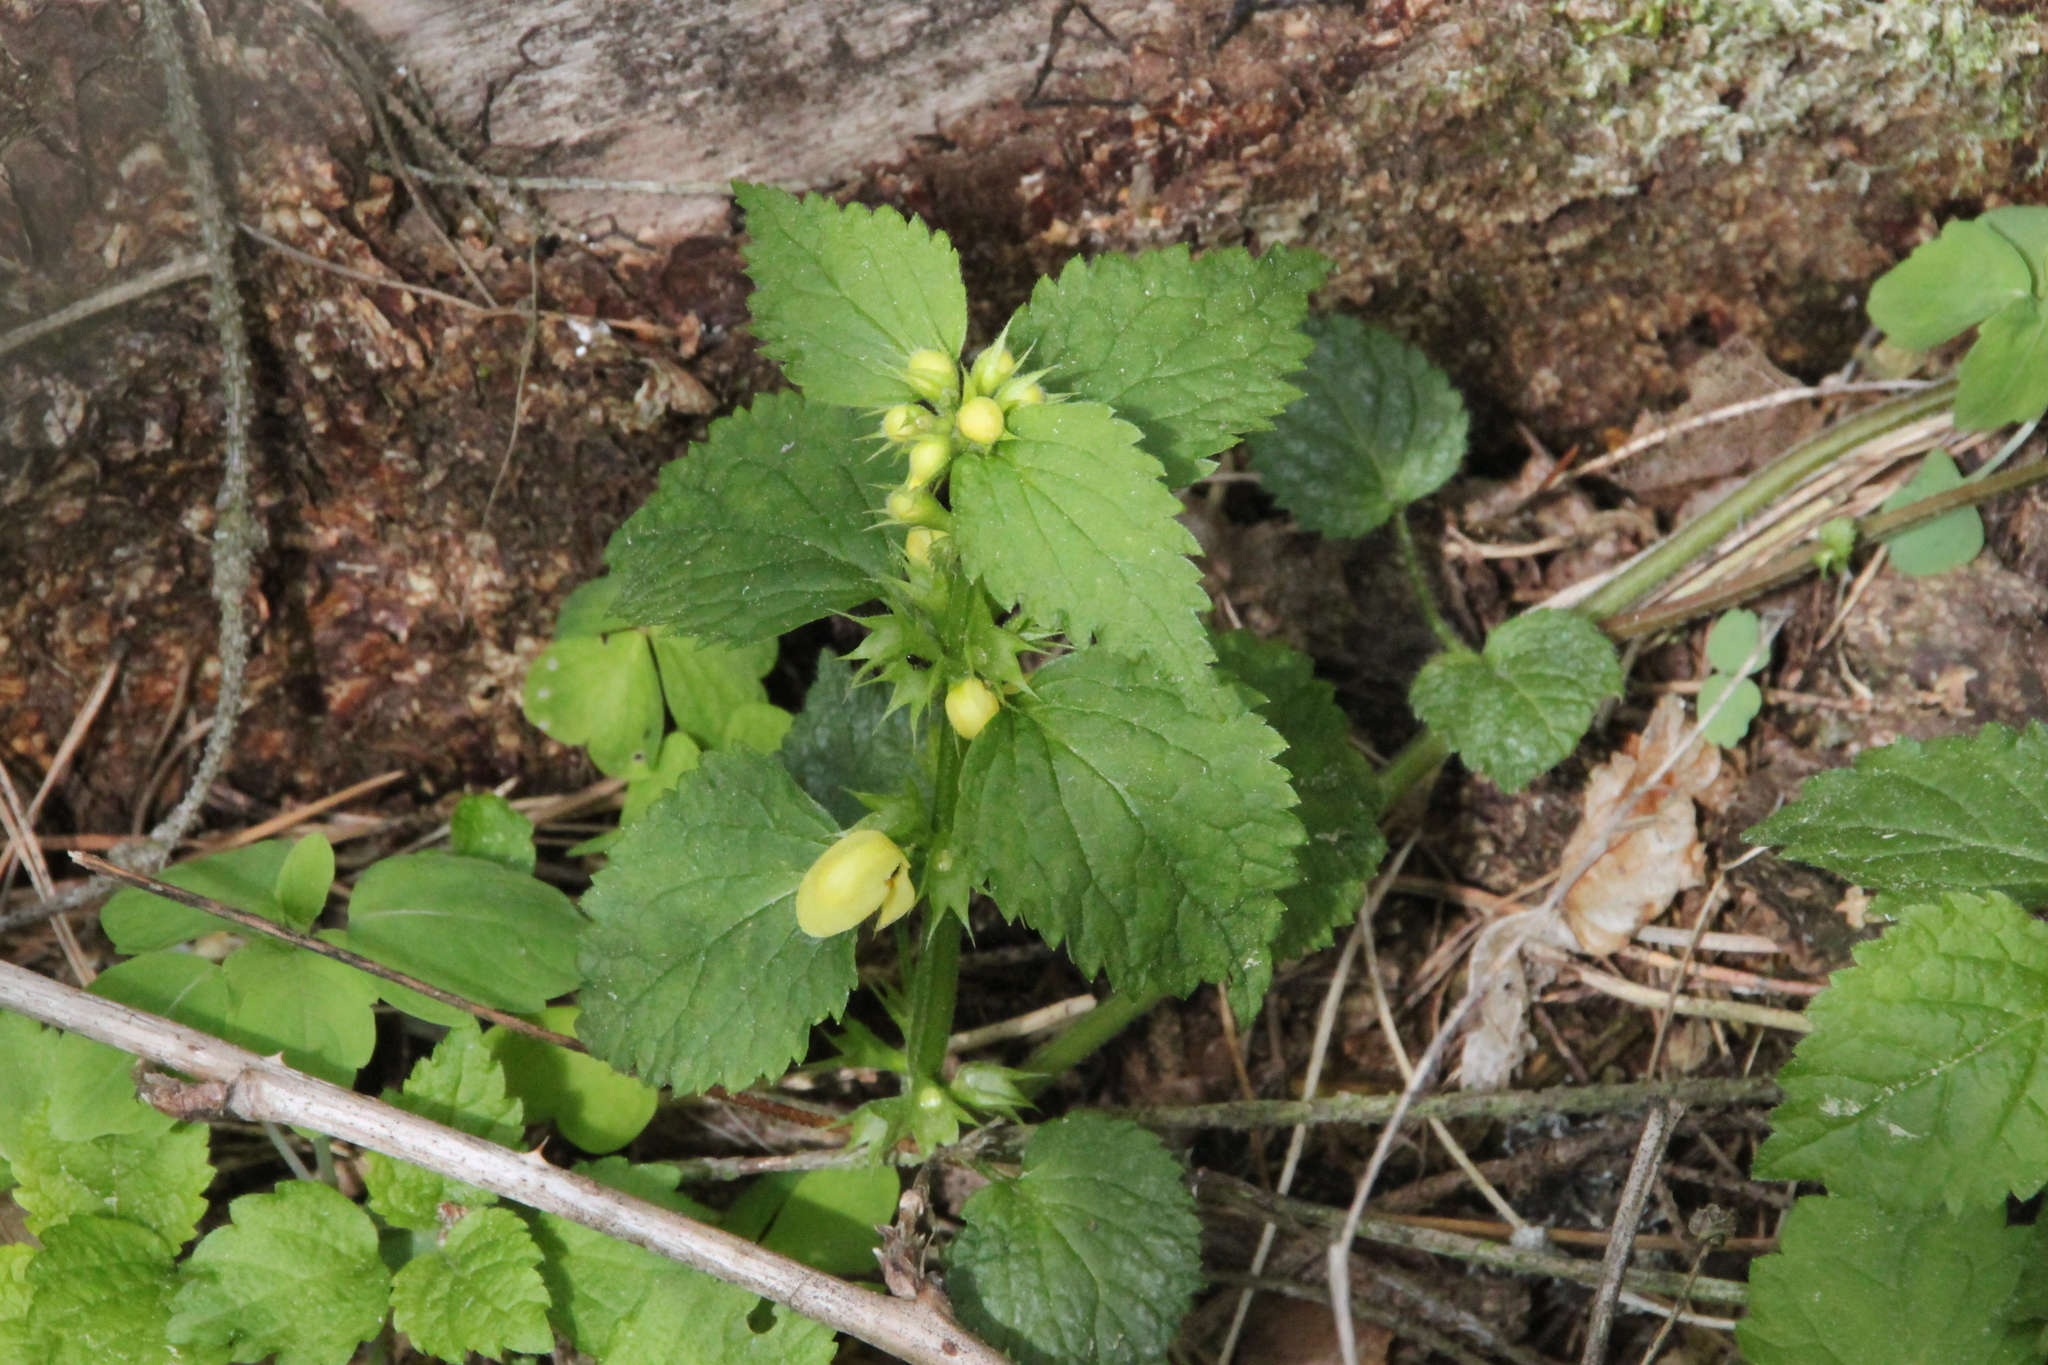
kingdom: Plantae
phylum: Tracheophyta
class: Magnoliopsida
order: Lamiales
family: Lamiaceae
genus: Lamium
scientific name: Lamium galeobdolon
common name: Yellow archangel
